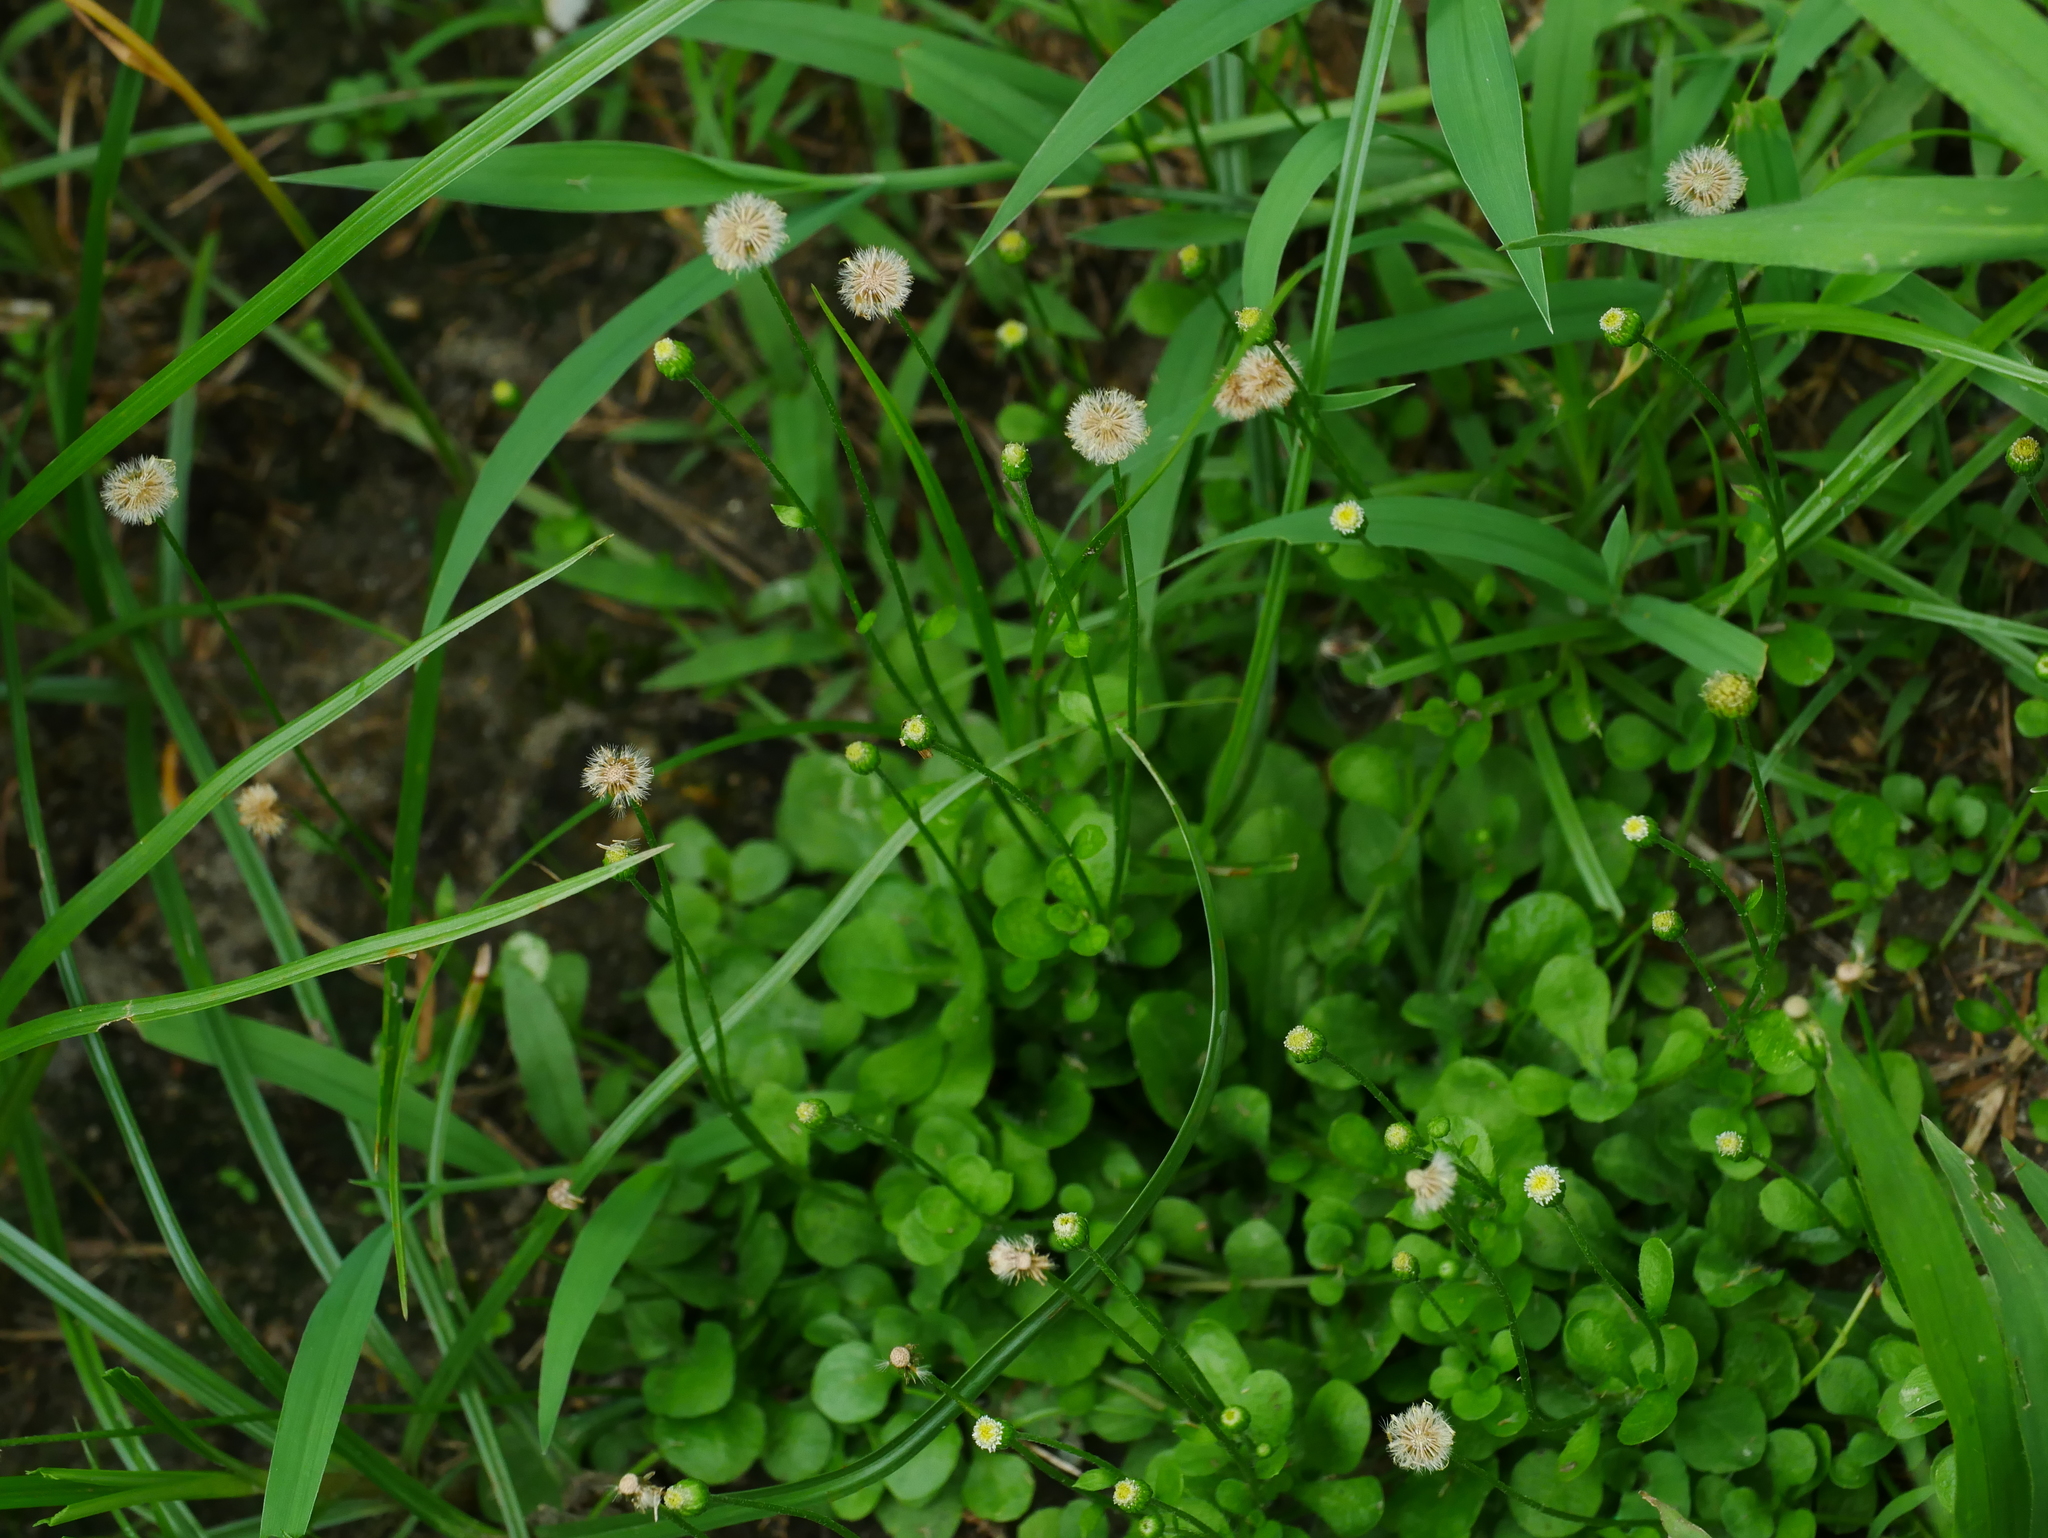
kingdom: Plantae
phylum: Tracheophyta
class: Magnoliopsida
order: Asterales
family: Asteraceae
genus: Erigeron
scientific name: Erigeron bellioides
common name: Bellorita
